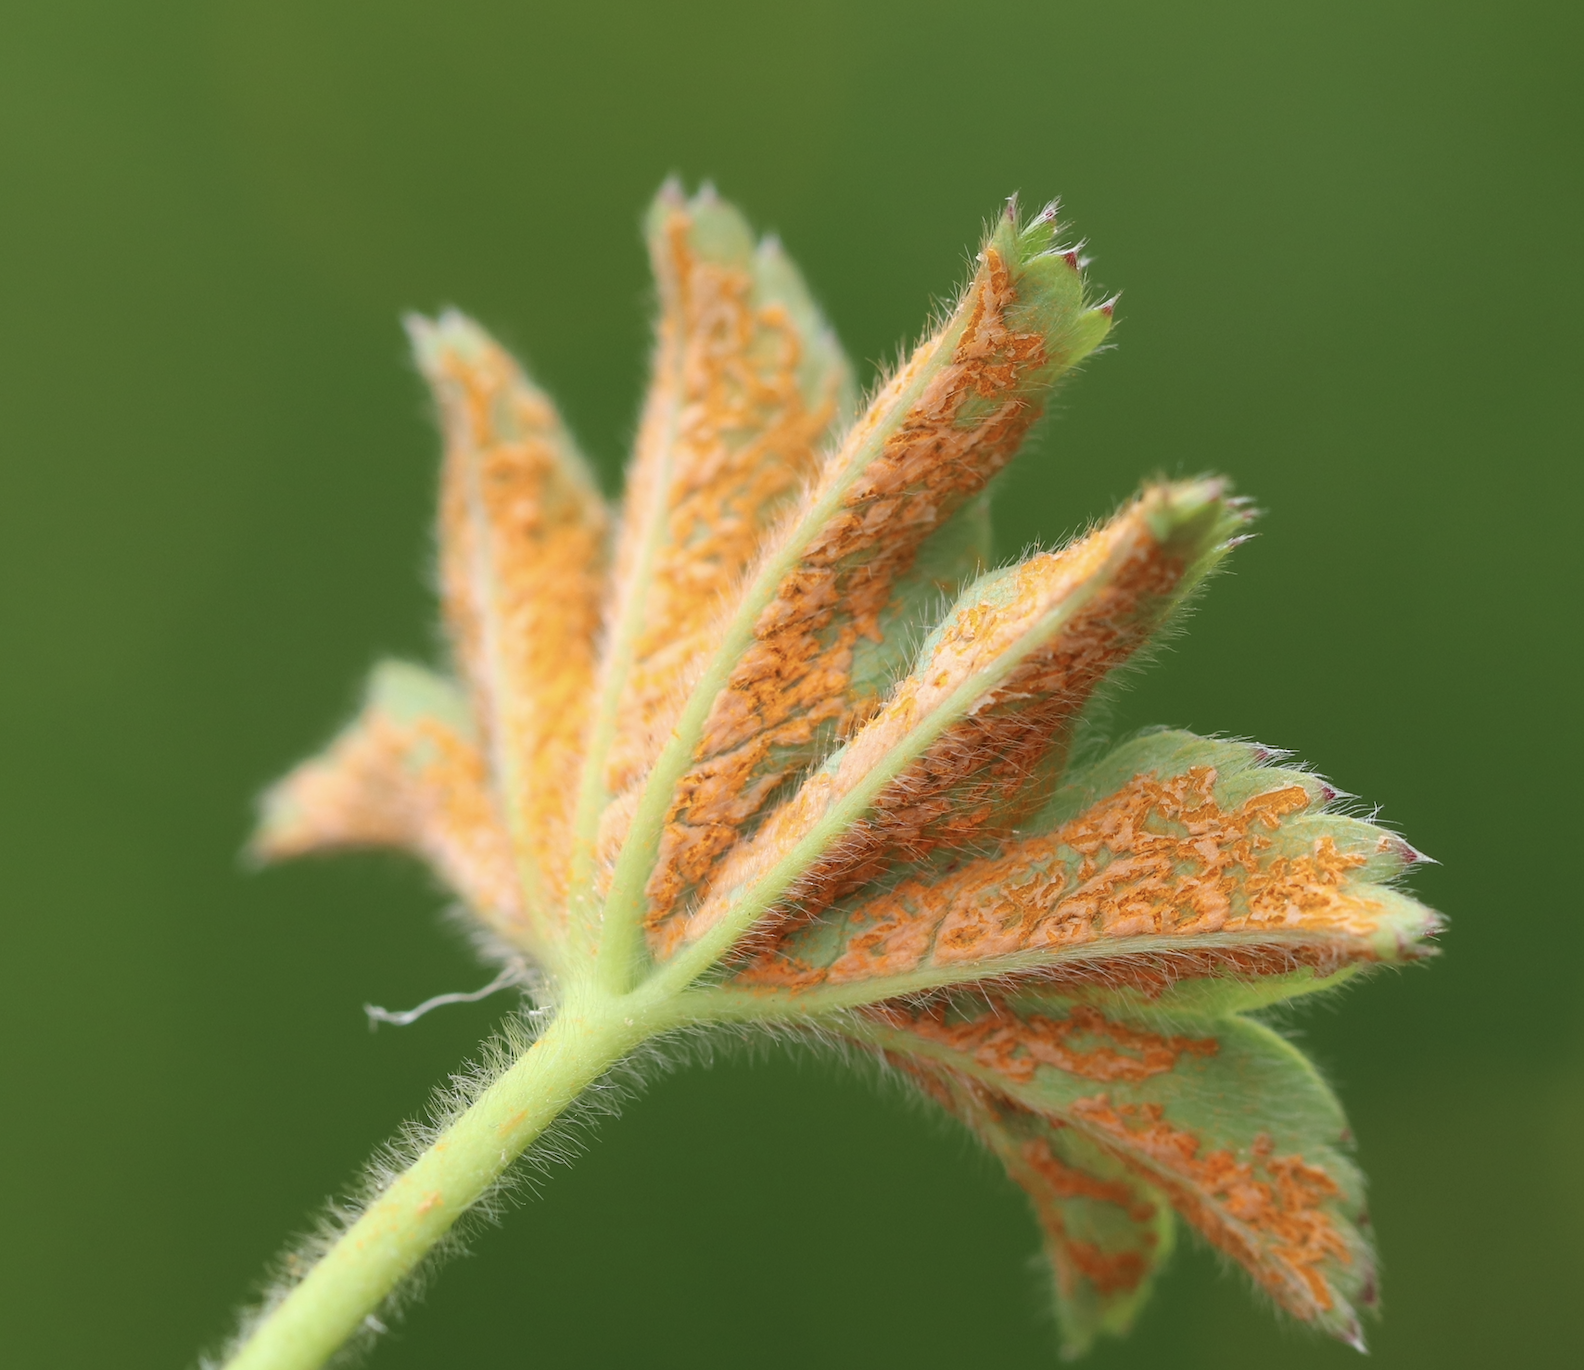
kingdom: Fungi
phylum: Basidiomycota
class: Pucciniomycetes
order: Pucciniales
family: Phragmidiaceae
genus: Trachyspora
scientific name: Trachyspora alchemillae
